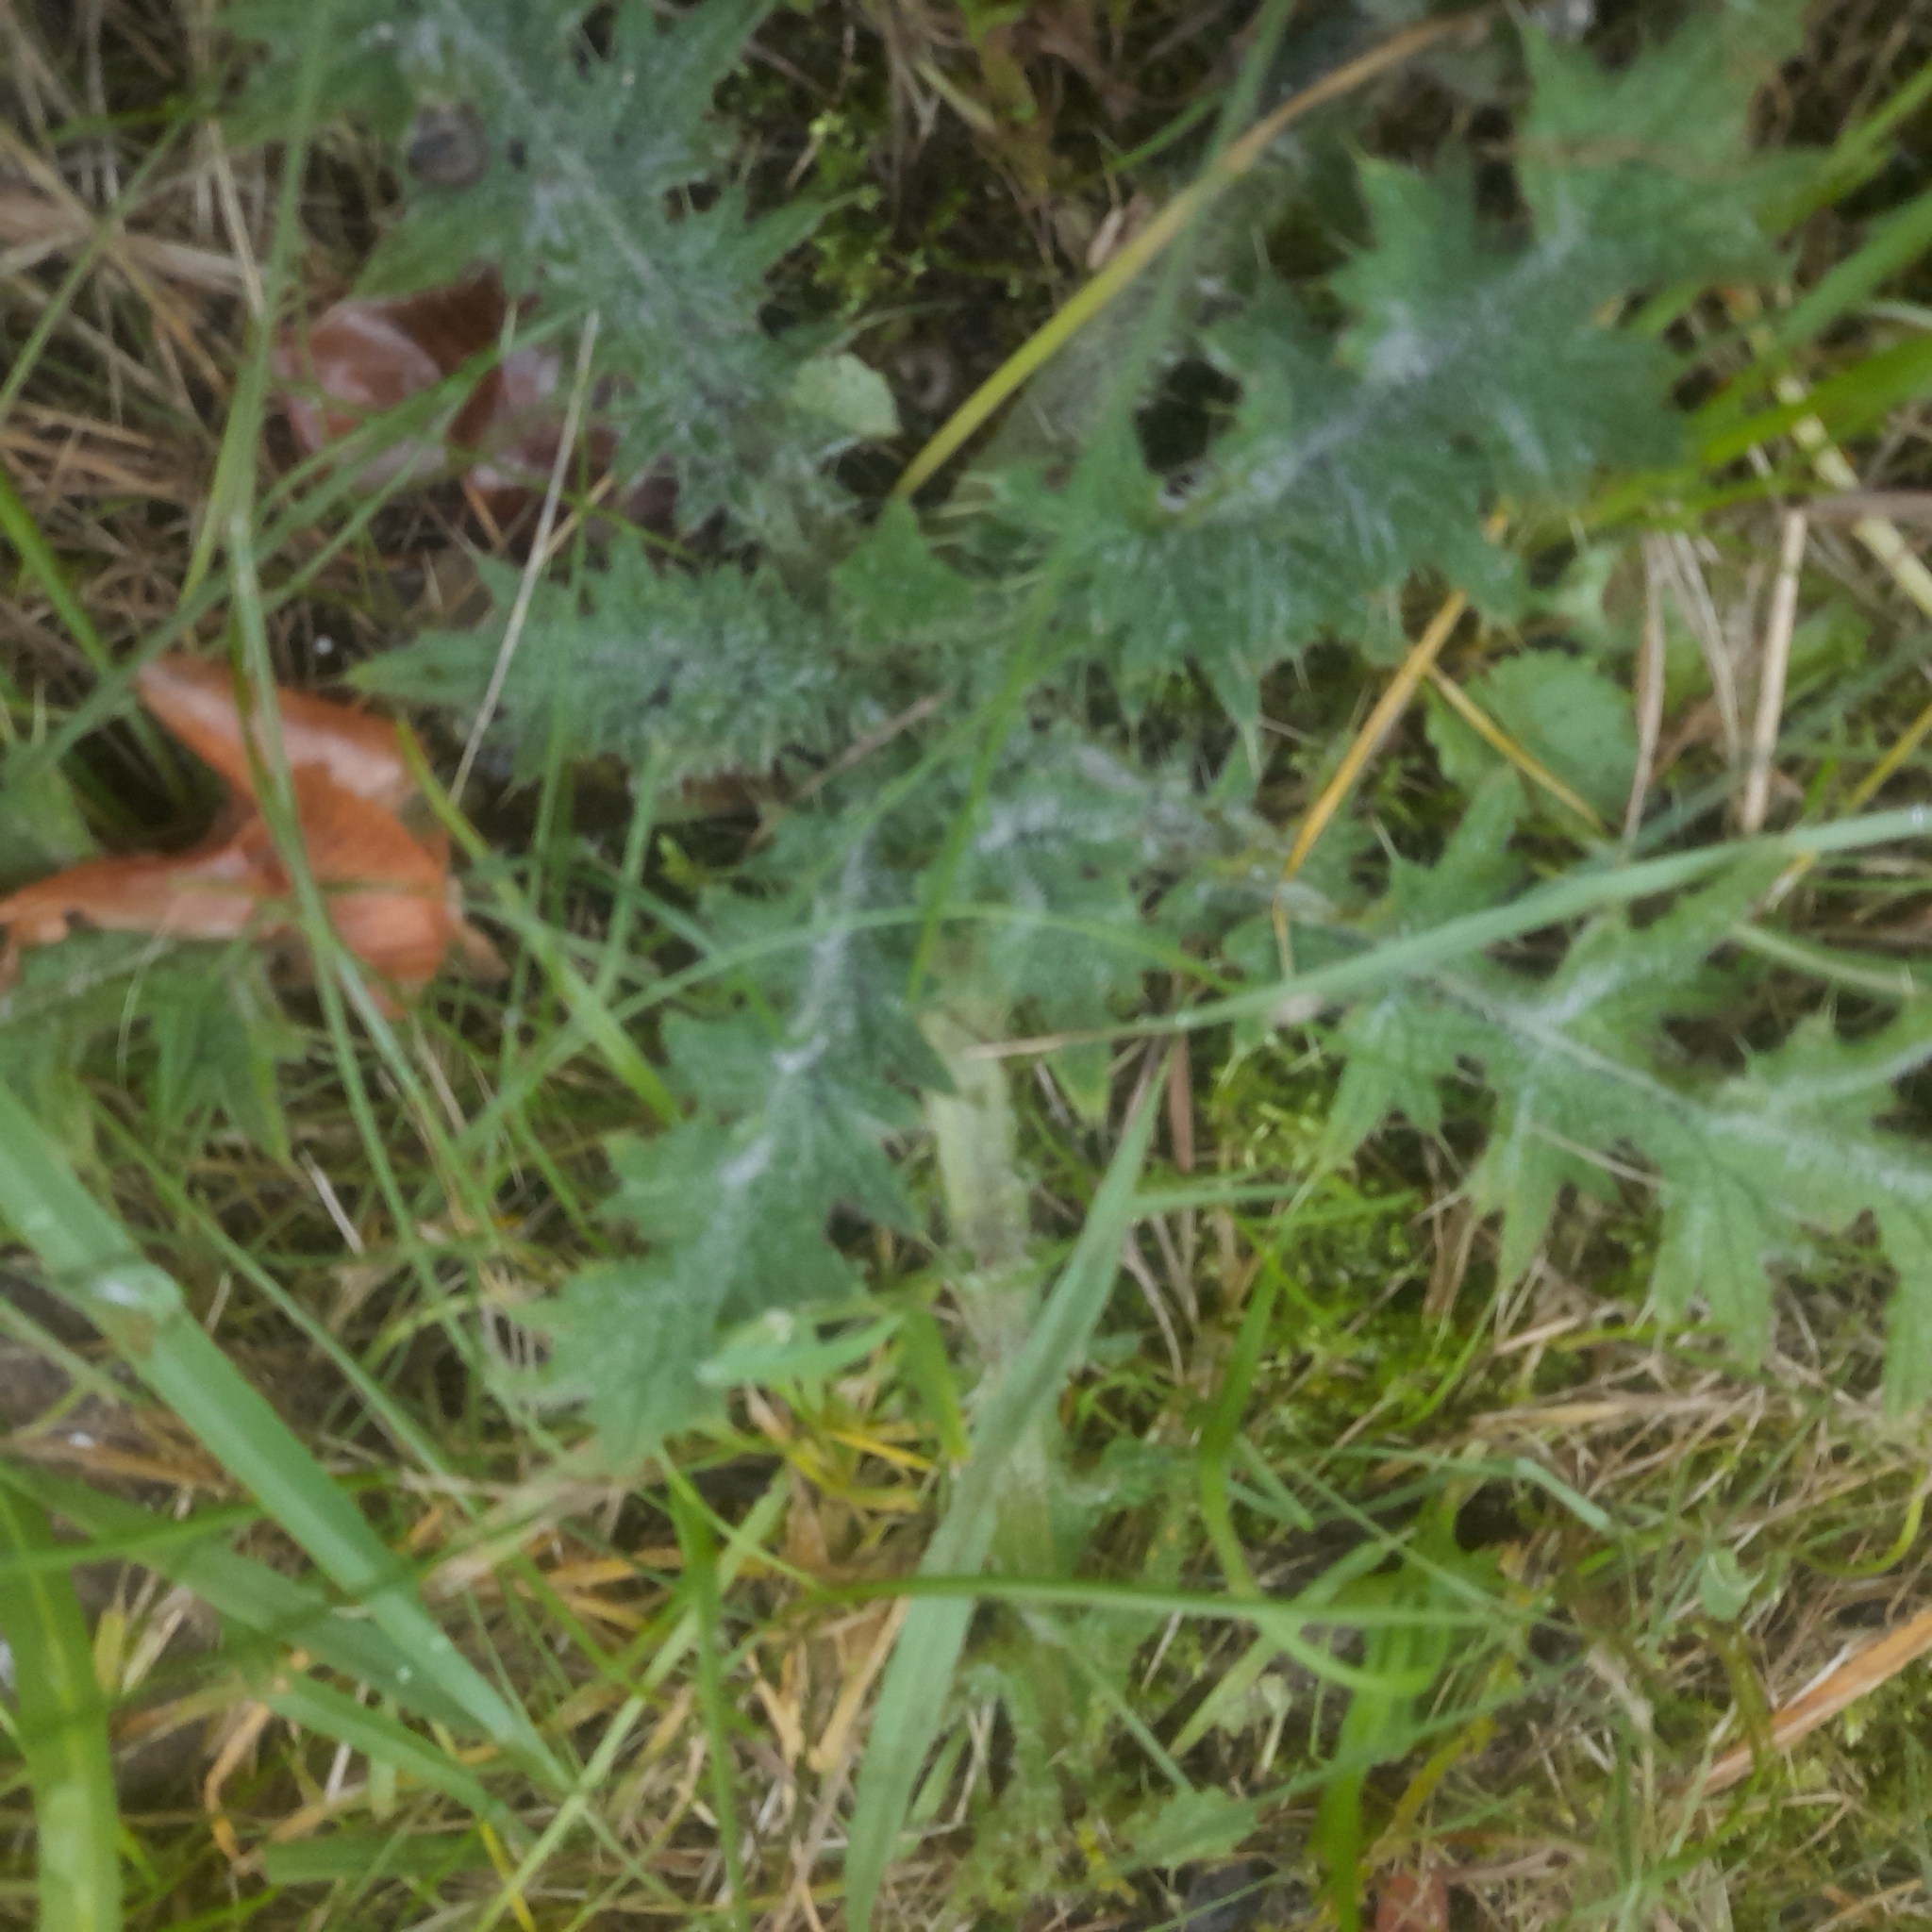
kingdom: Plantae
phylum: Tracheophyta
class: Magnoliopsida
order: Asterales
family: Asteraceae
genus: Cirsium
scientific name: Cirsium vulgare
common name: Bull thistle
